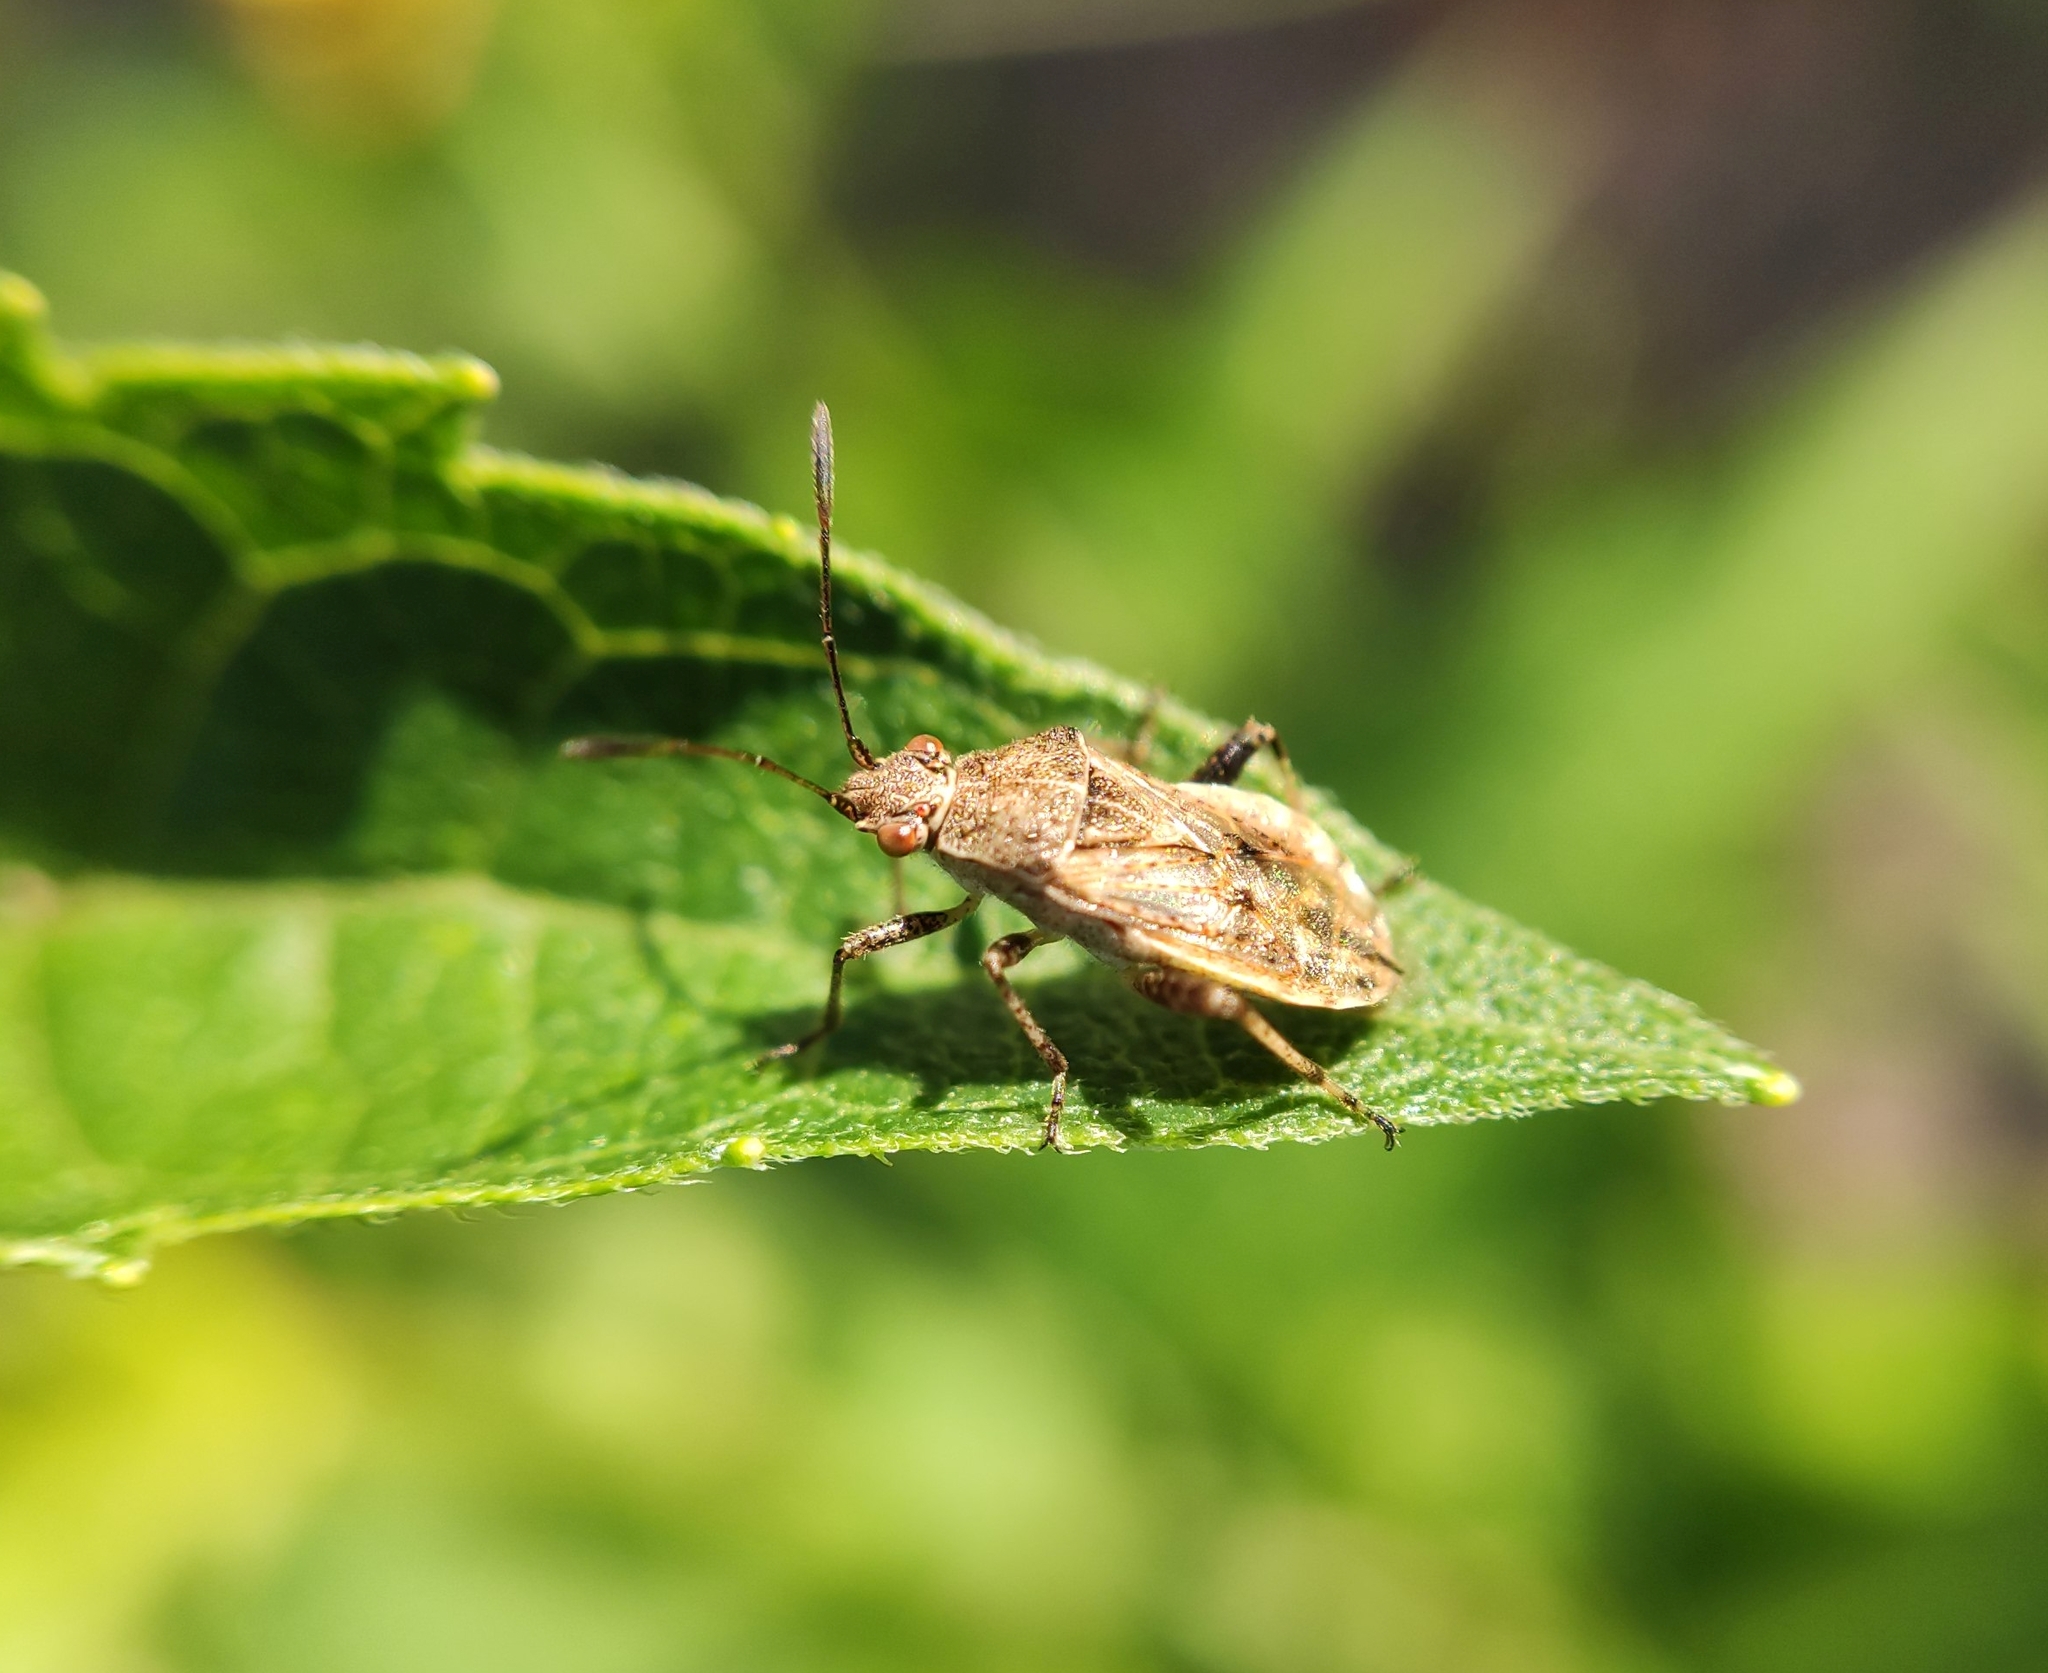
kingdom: Animalia
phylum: Arthropoda
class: Insecta
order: Hemiptera
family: Rhopalidae
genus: Stictopleurus
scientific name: Stictopleurus punctatonervosus
